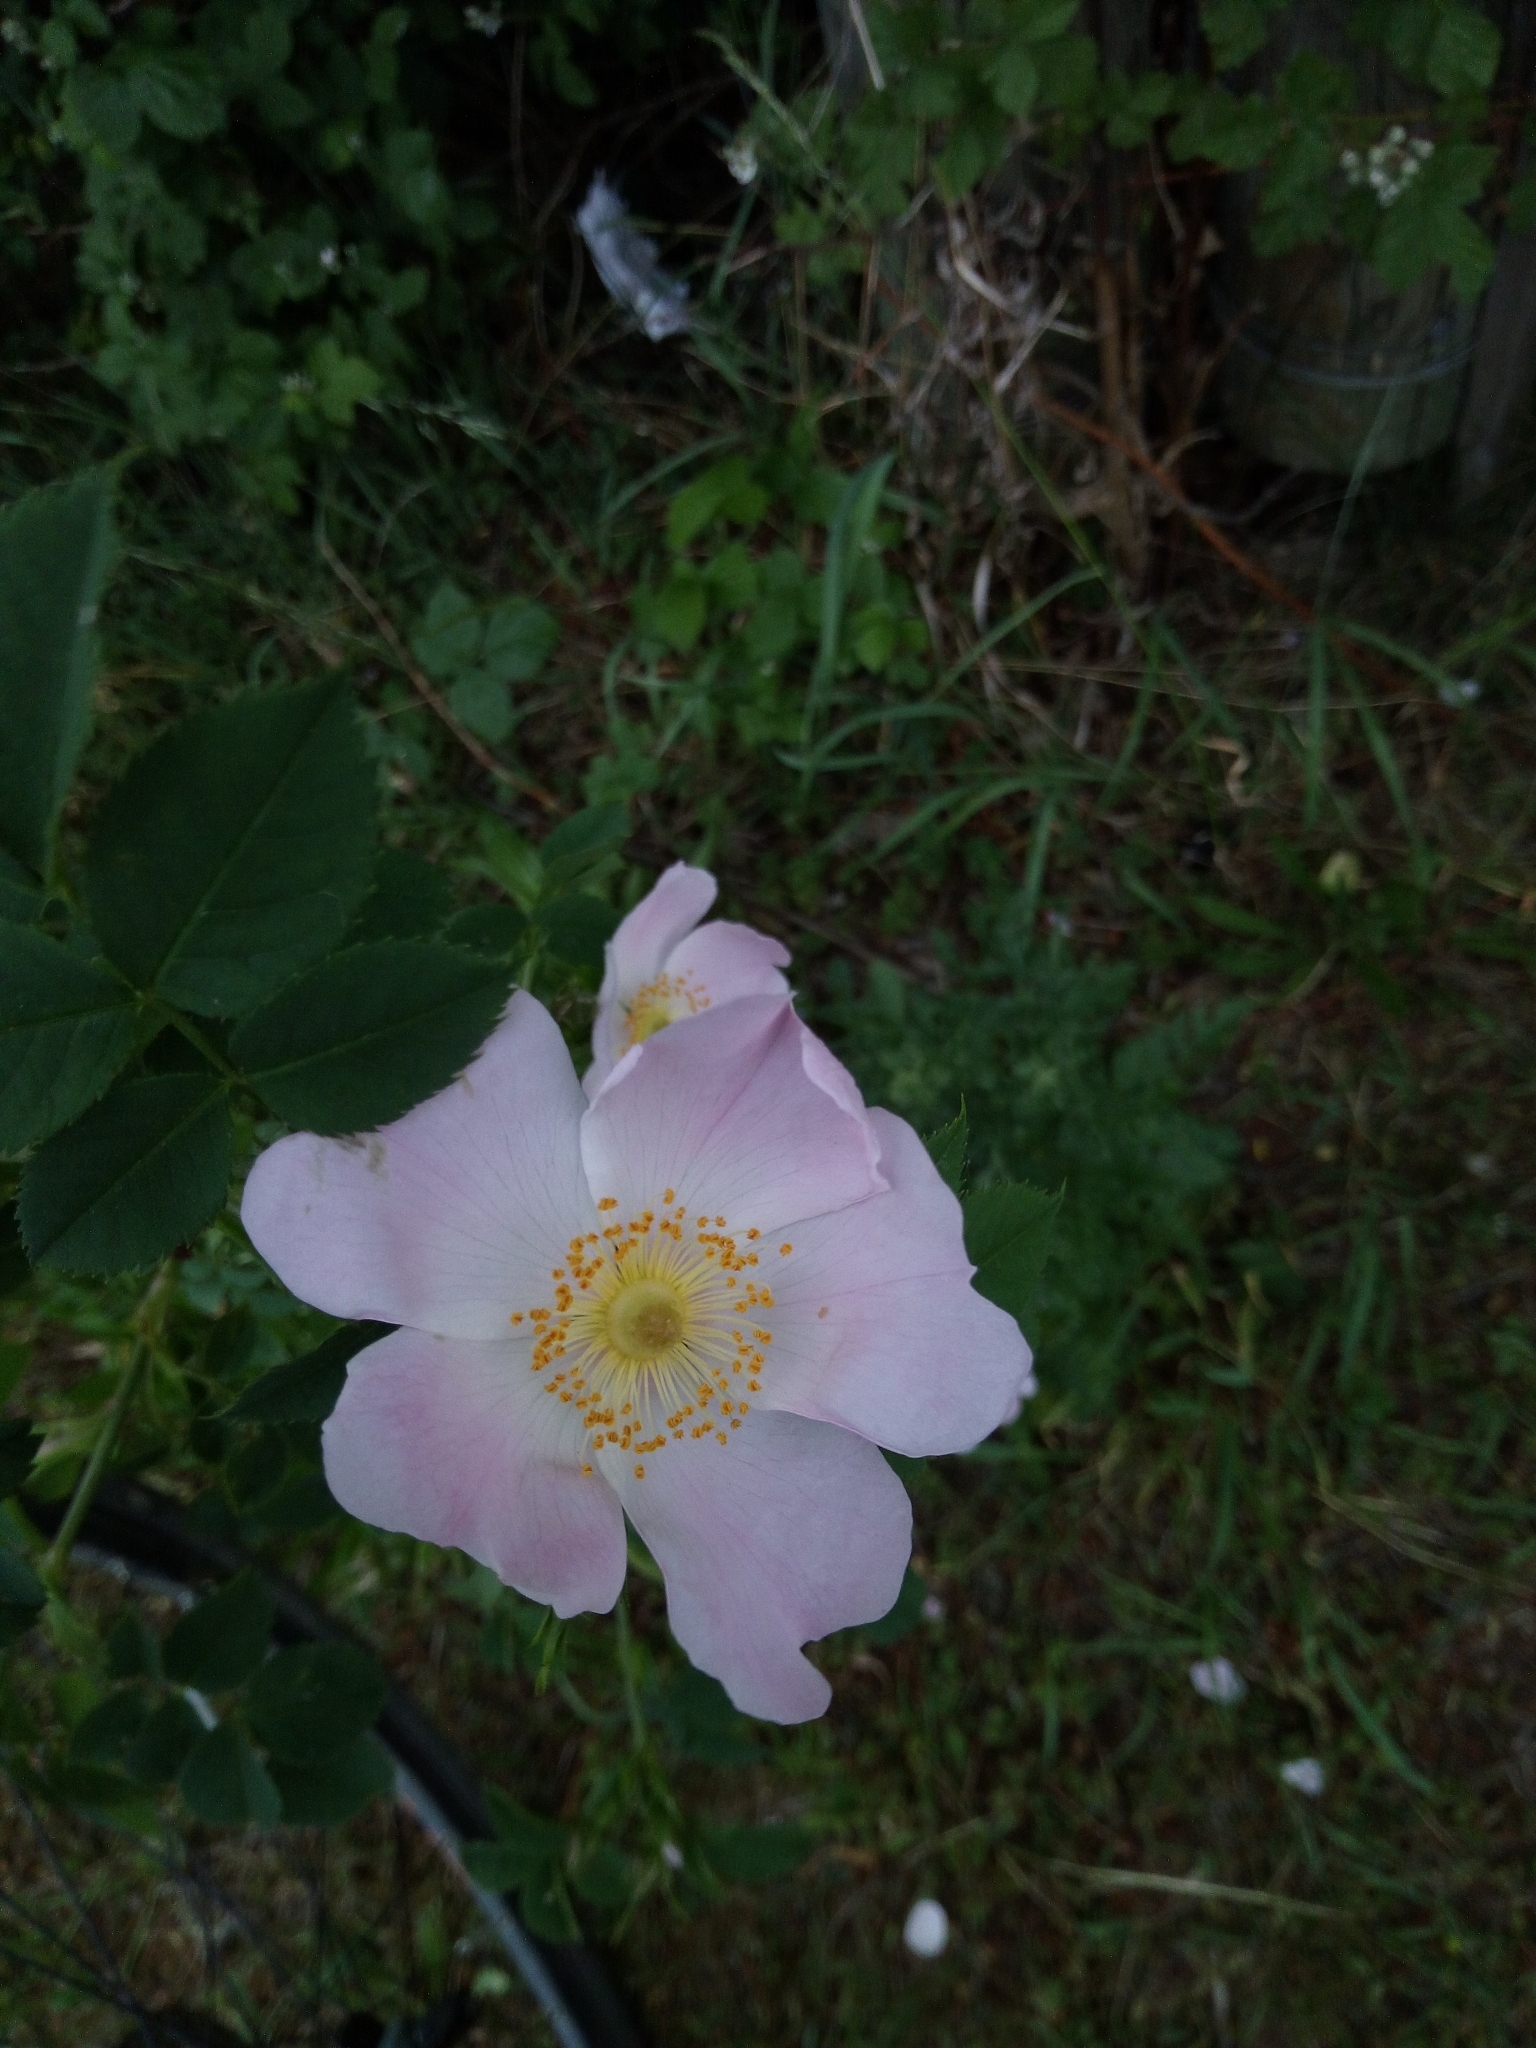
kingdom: Plantae
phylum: Tracheophyta
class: Magnoliopsida
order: Rosales
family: Rosaceae
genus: Rosa
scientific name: Rosa canina
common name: Dog rose
